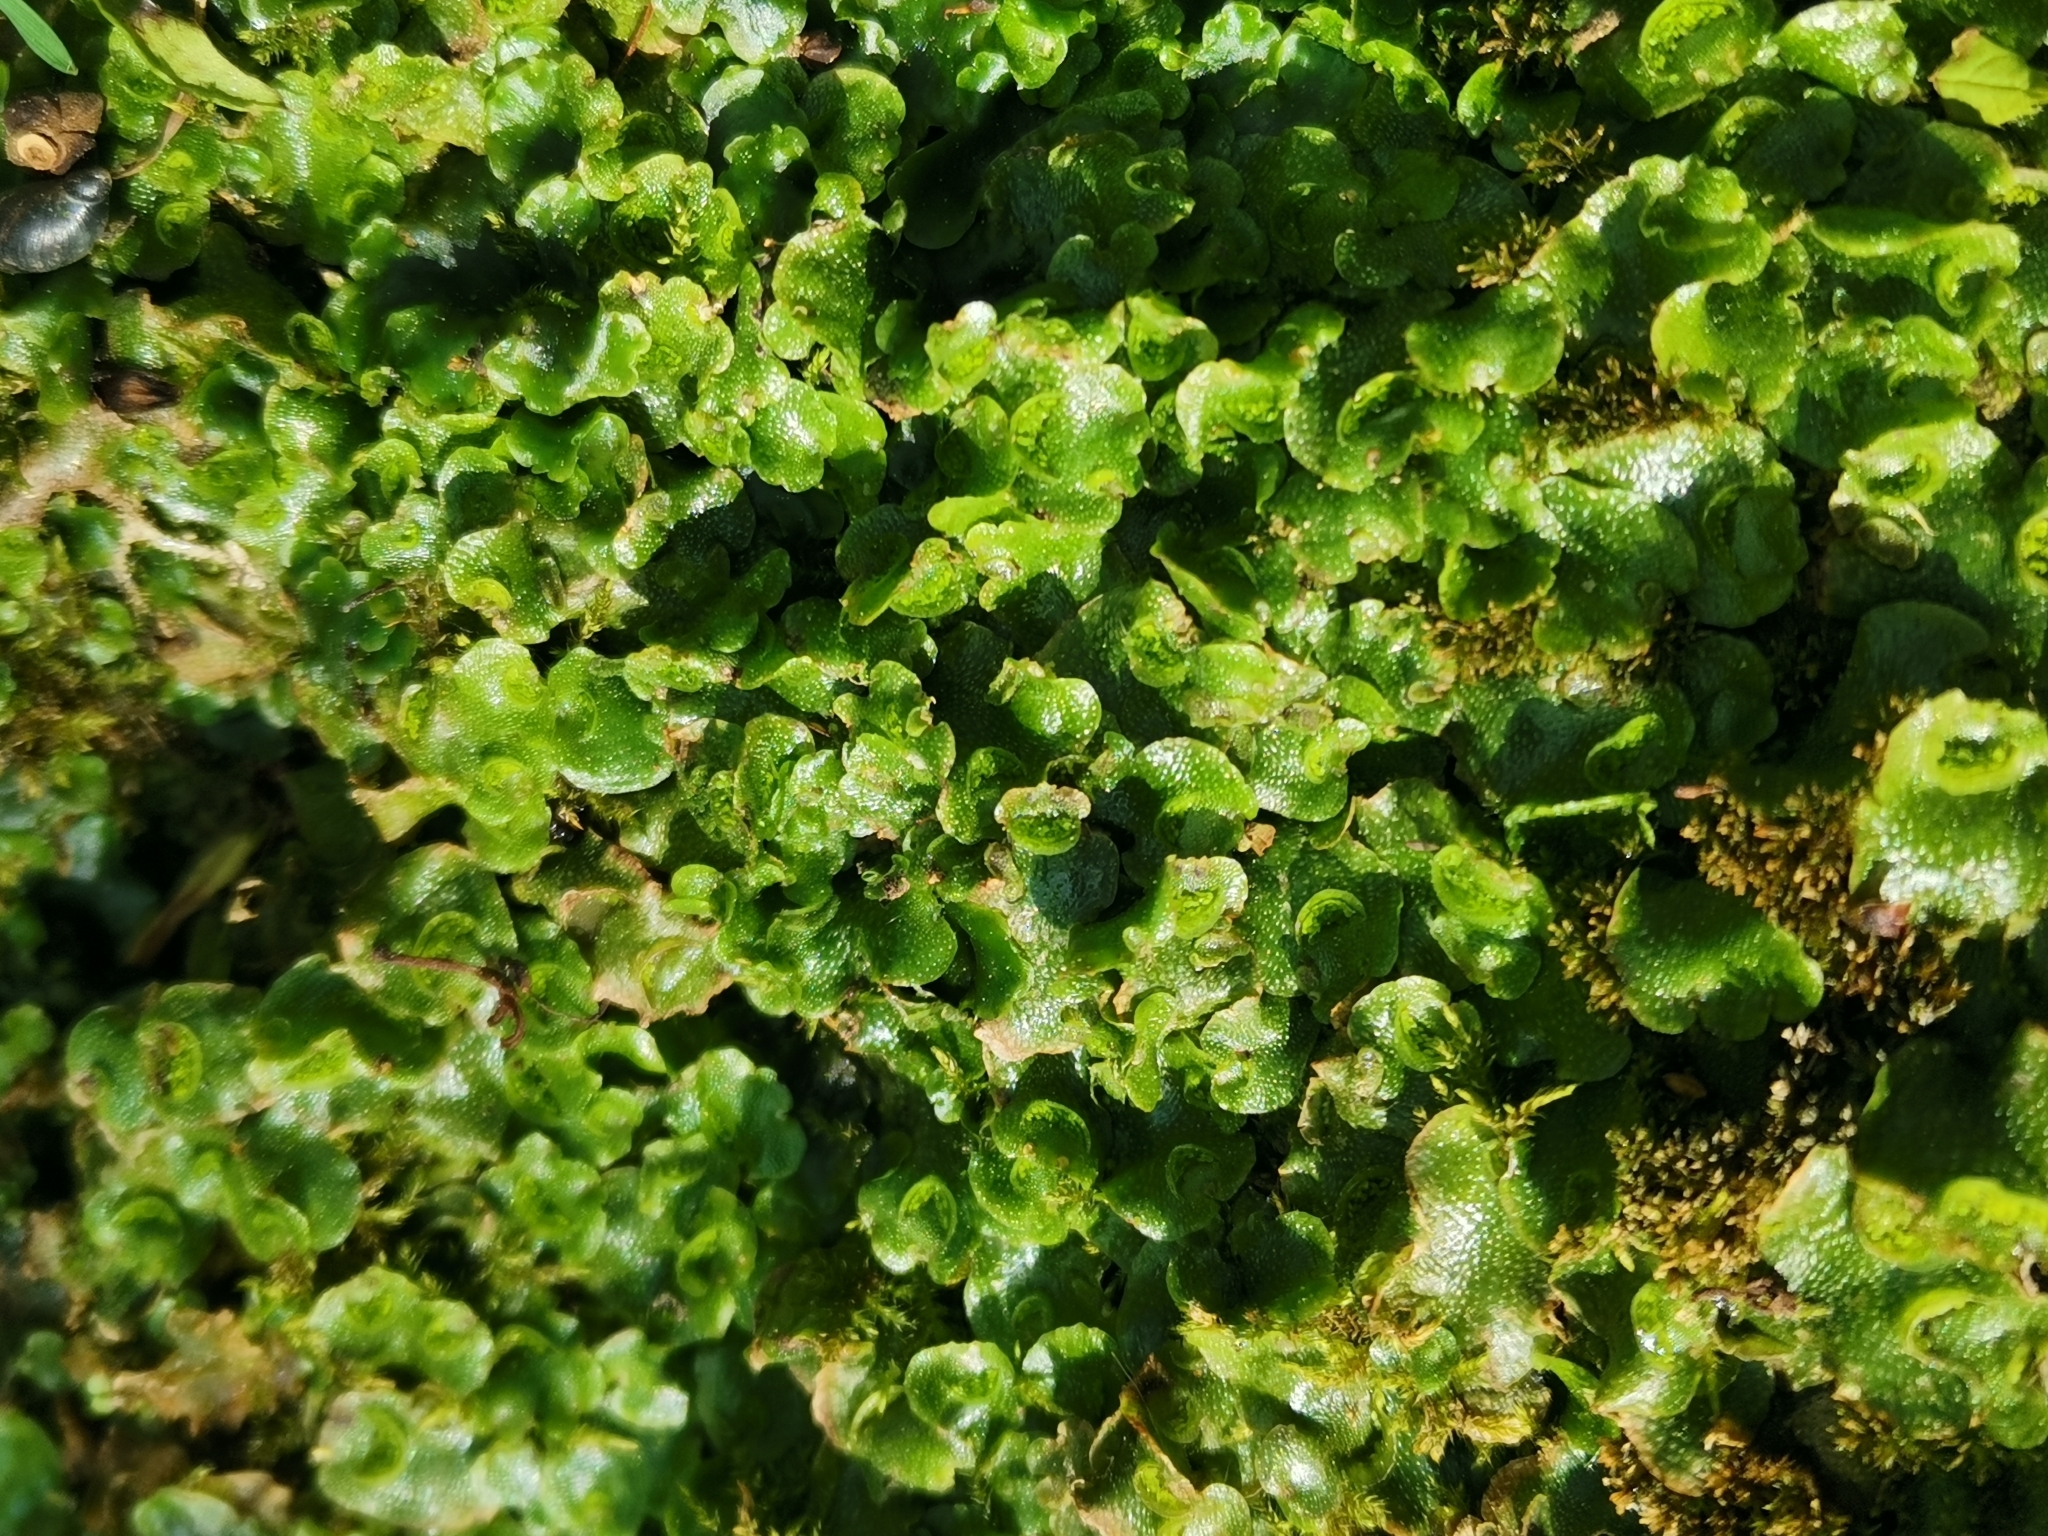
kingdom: Plantae
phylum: Marchantiophyta
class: Marchantiopsida
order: Lunulariales
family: Lunulariaceae
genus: Lunularia
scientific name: Lunularia cruciata
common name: Crescent-cup liverwort
